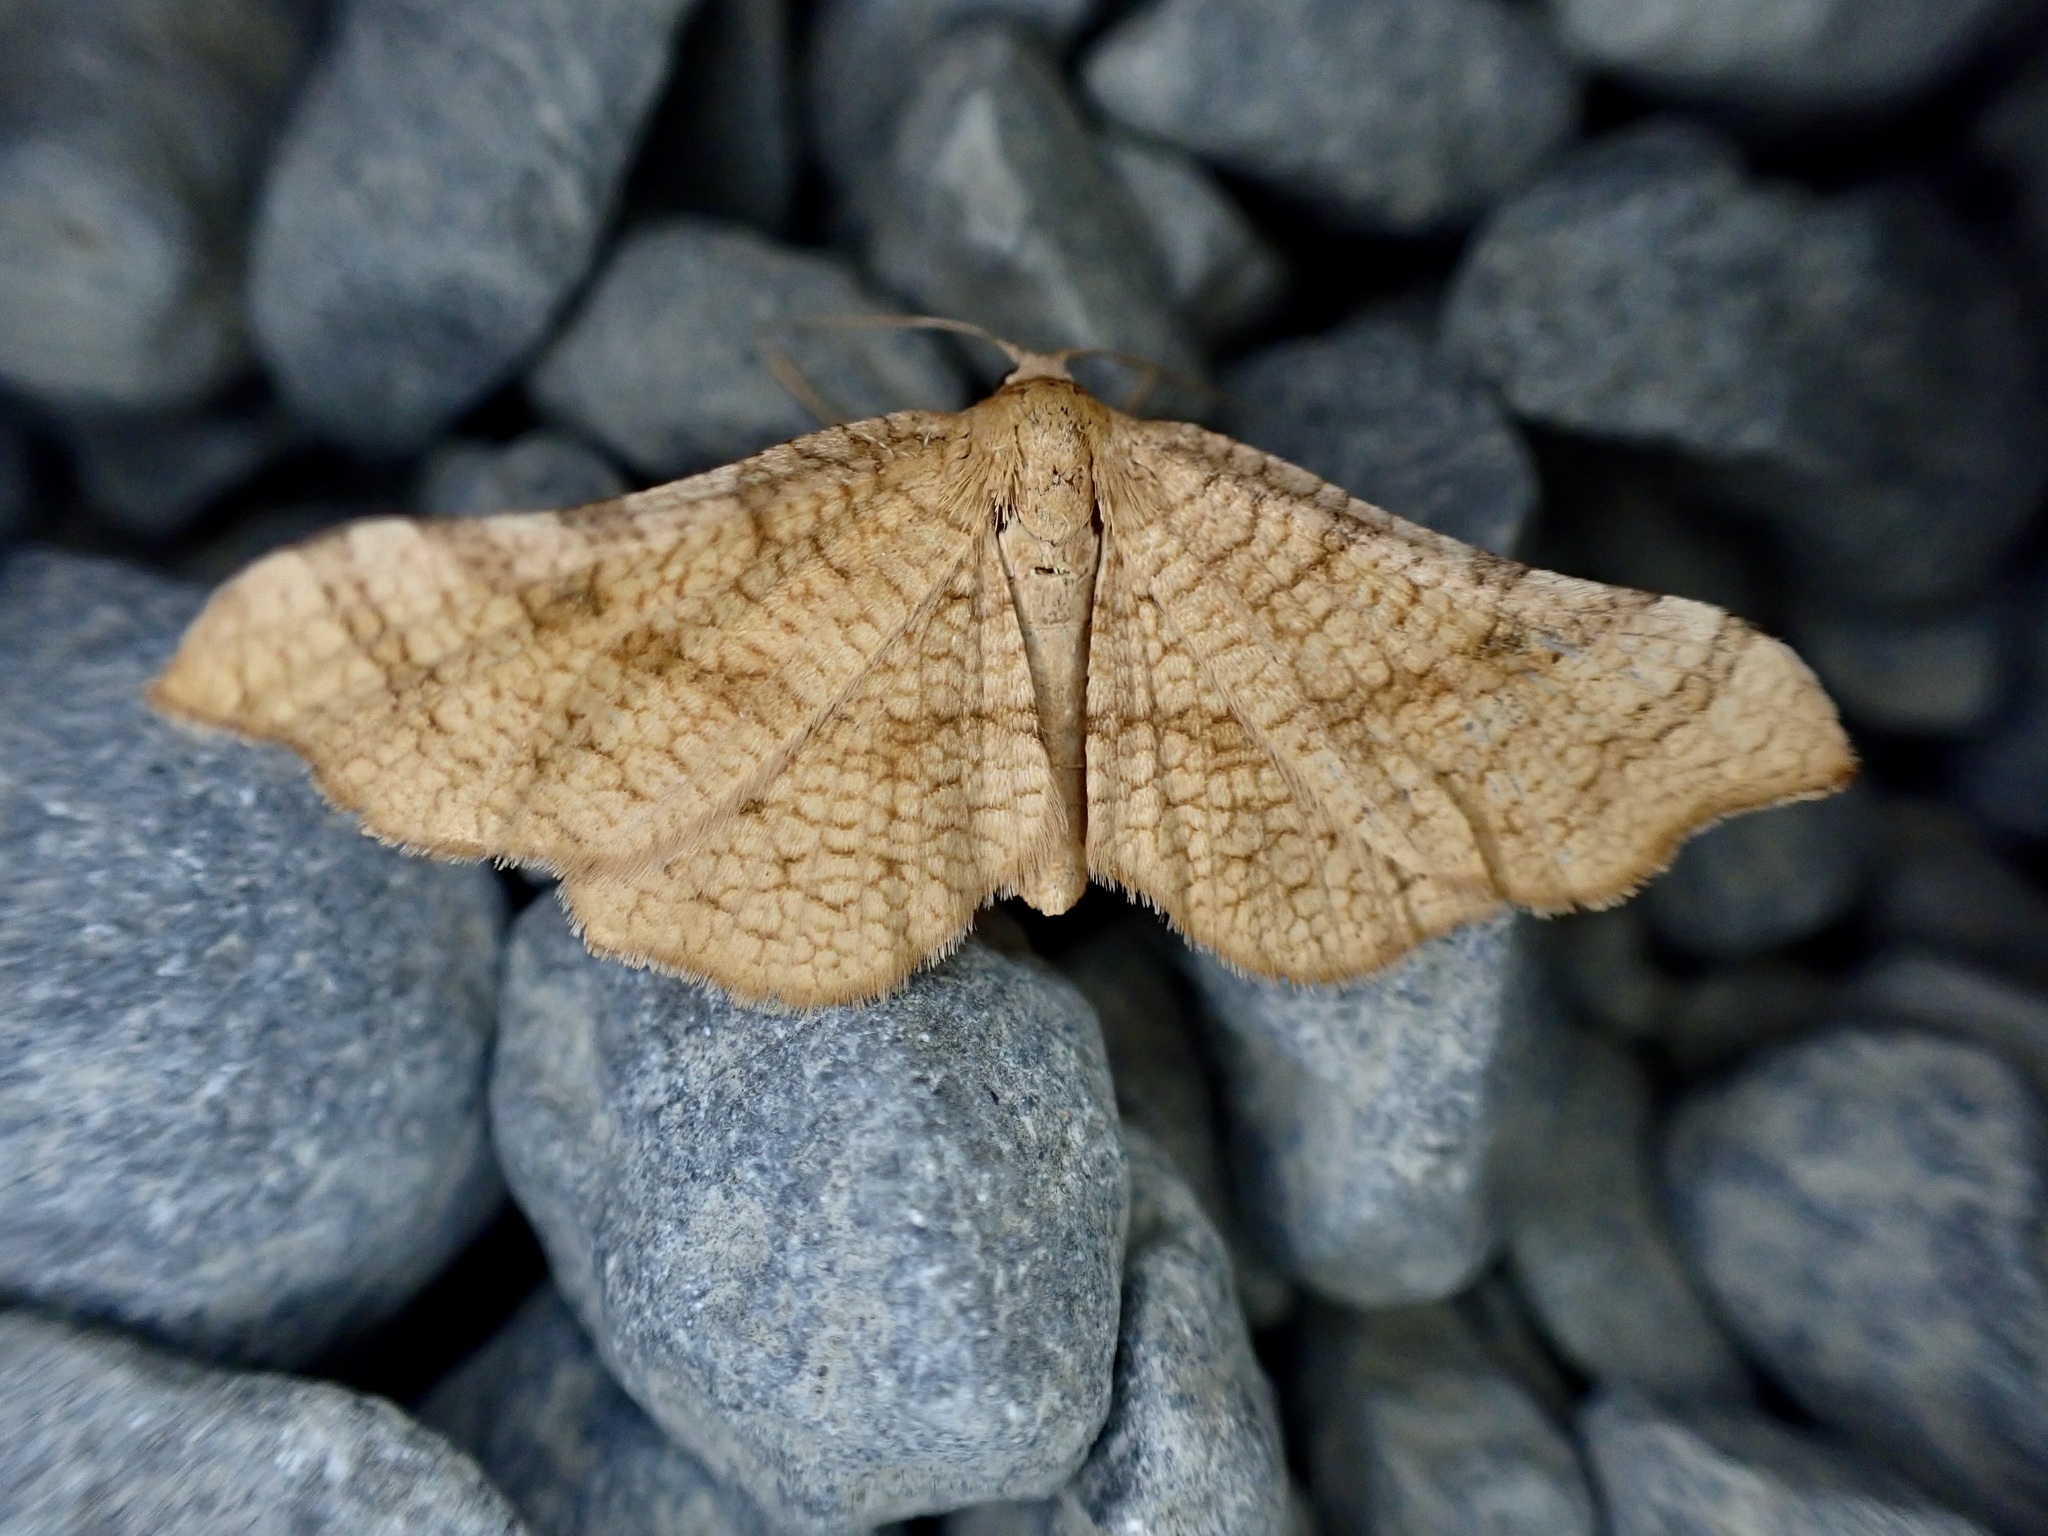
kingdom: Animalia
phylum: Arthropoda
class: Insecta
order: Lepidoptera
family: Thyrididae
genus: Morova
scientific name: Morova subfasciata
